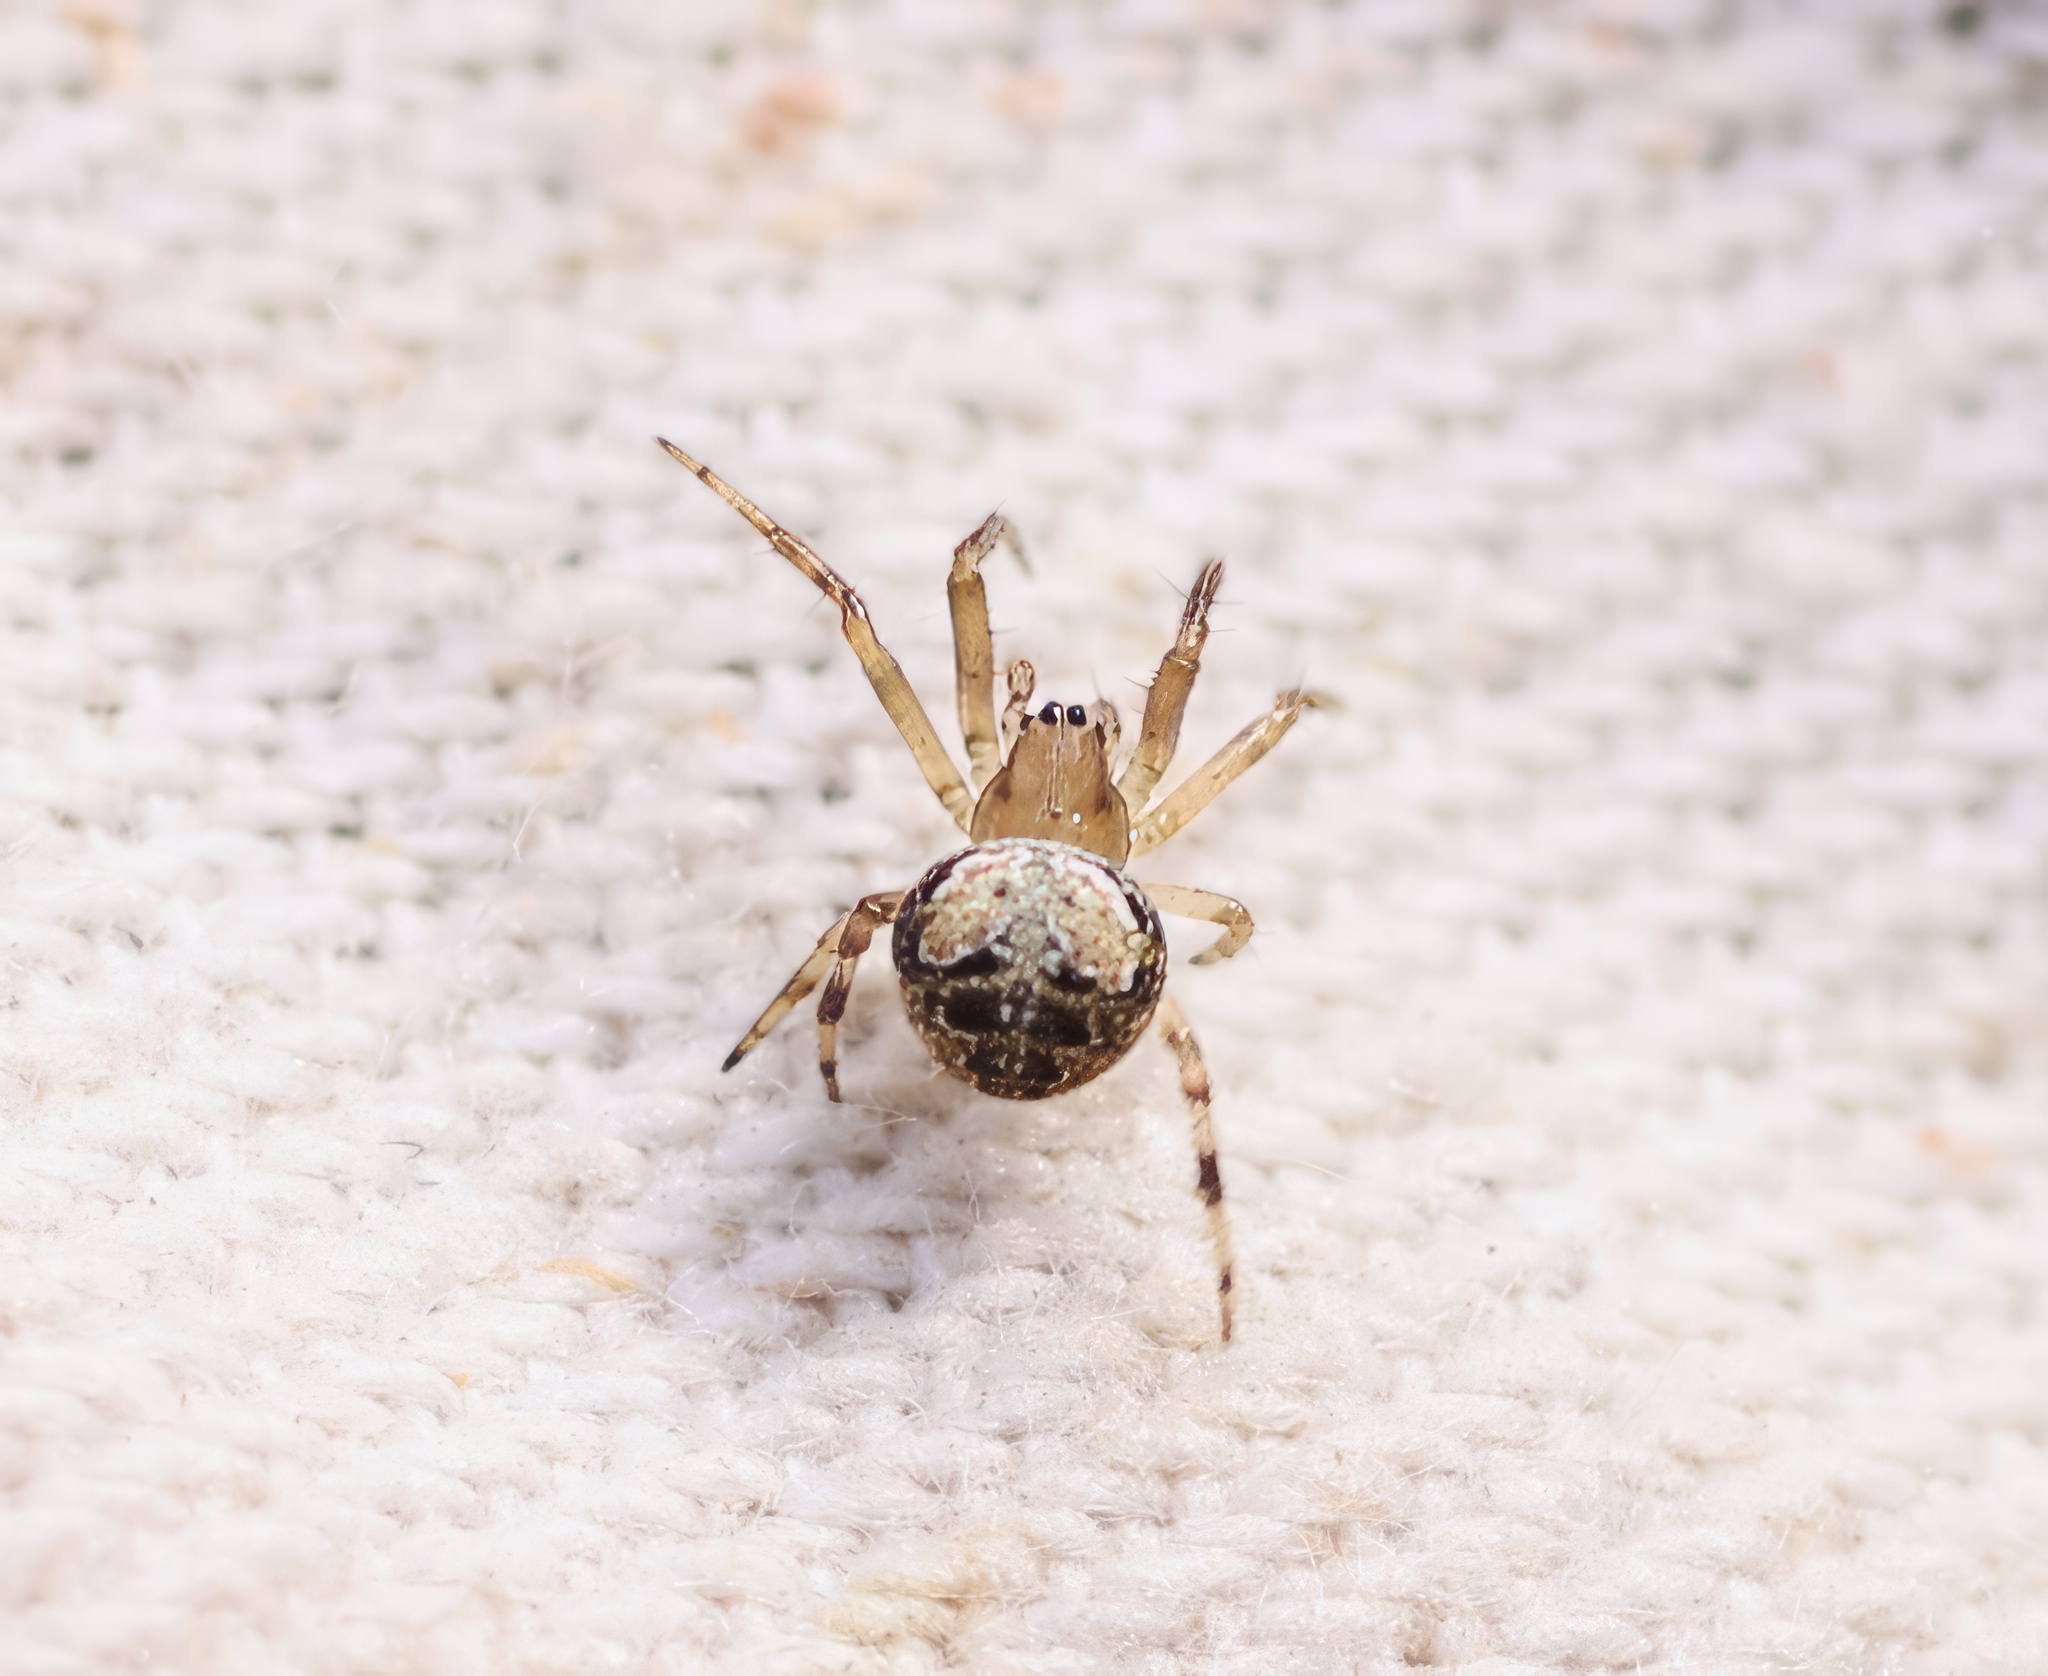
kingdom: Animalia
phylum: Arthropoda
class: Arachnida
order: Araneae
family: Araneidae
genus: Araneus
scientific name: Araneus pegnia
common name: Orb weavers
